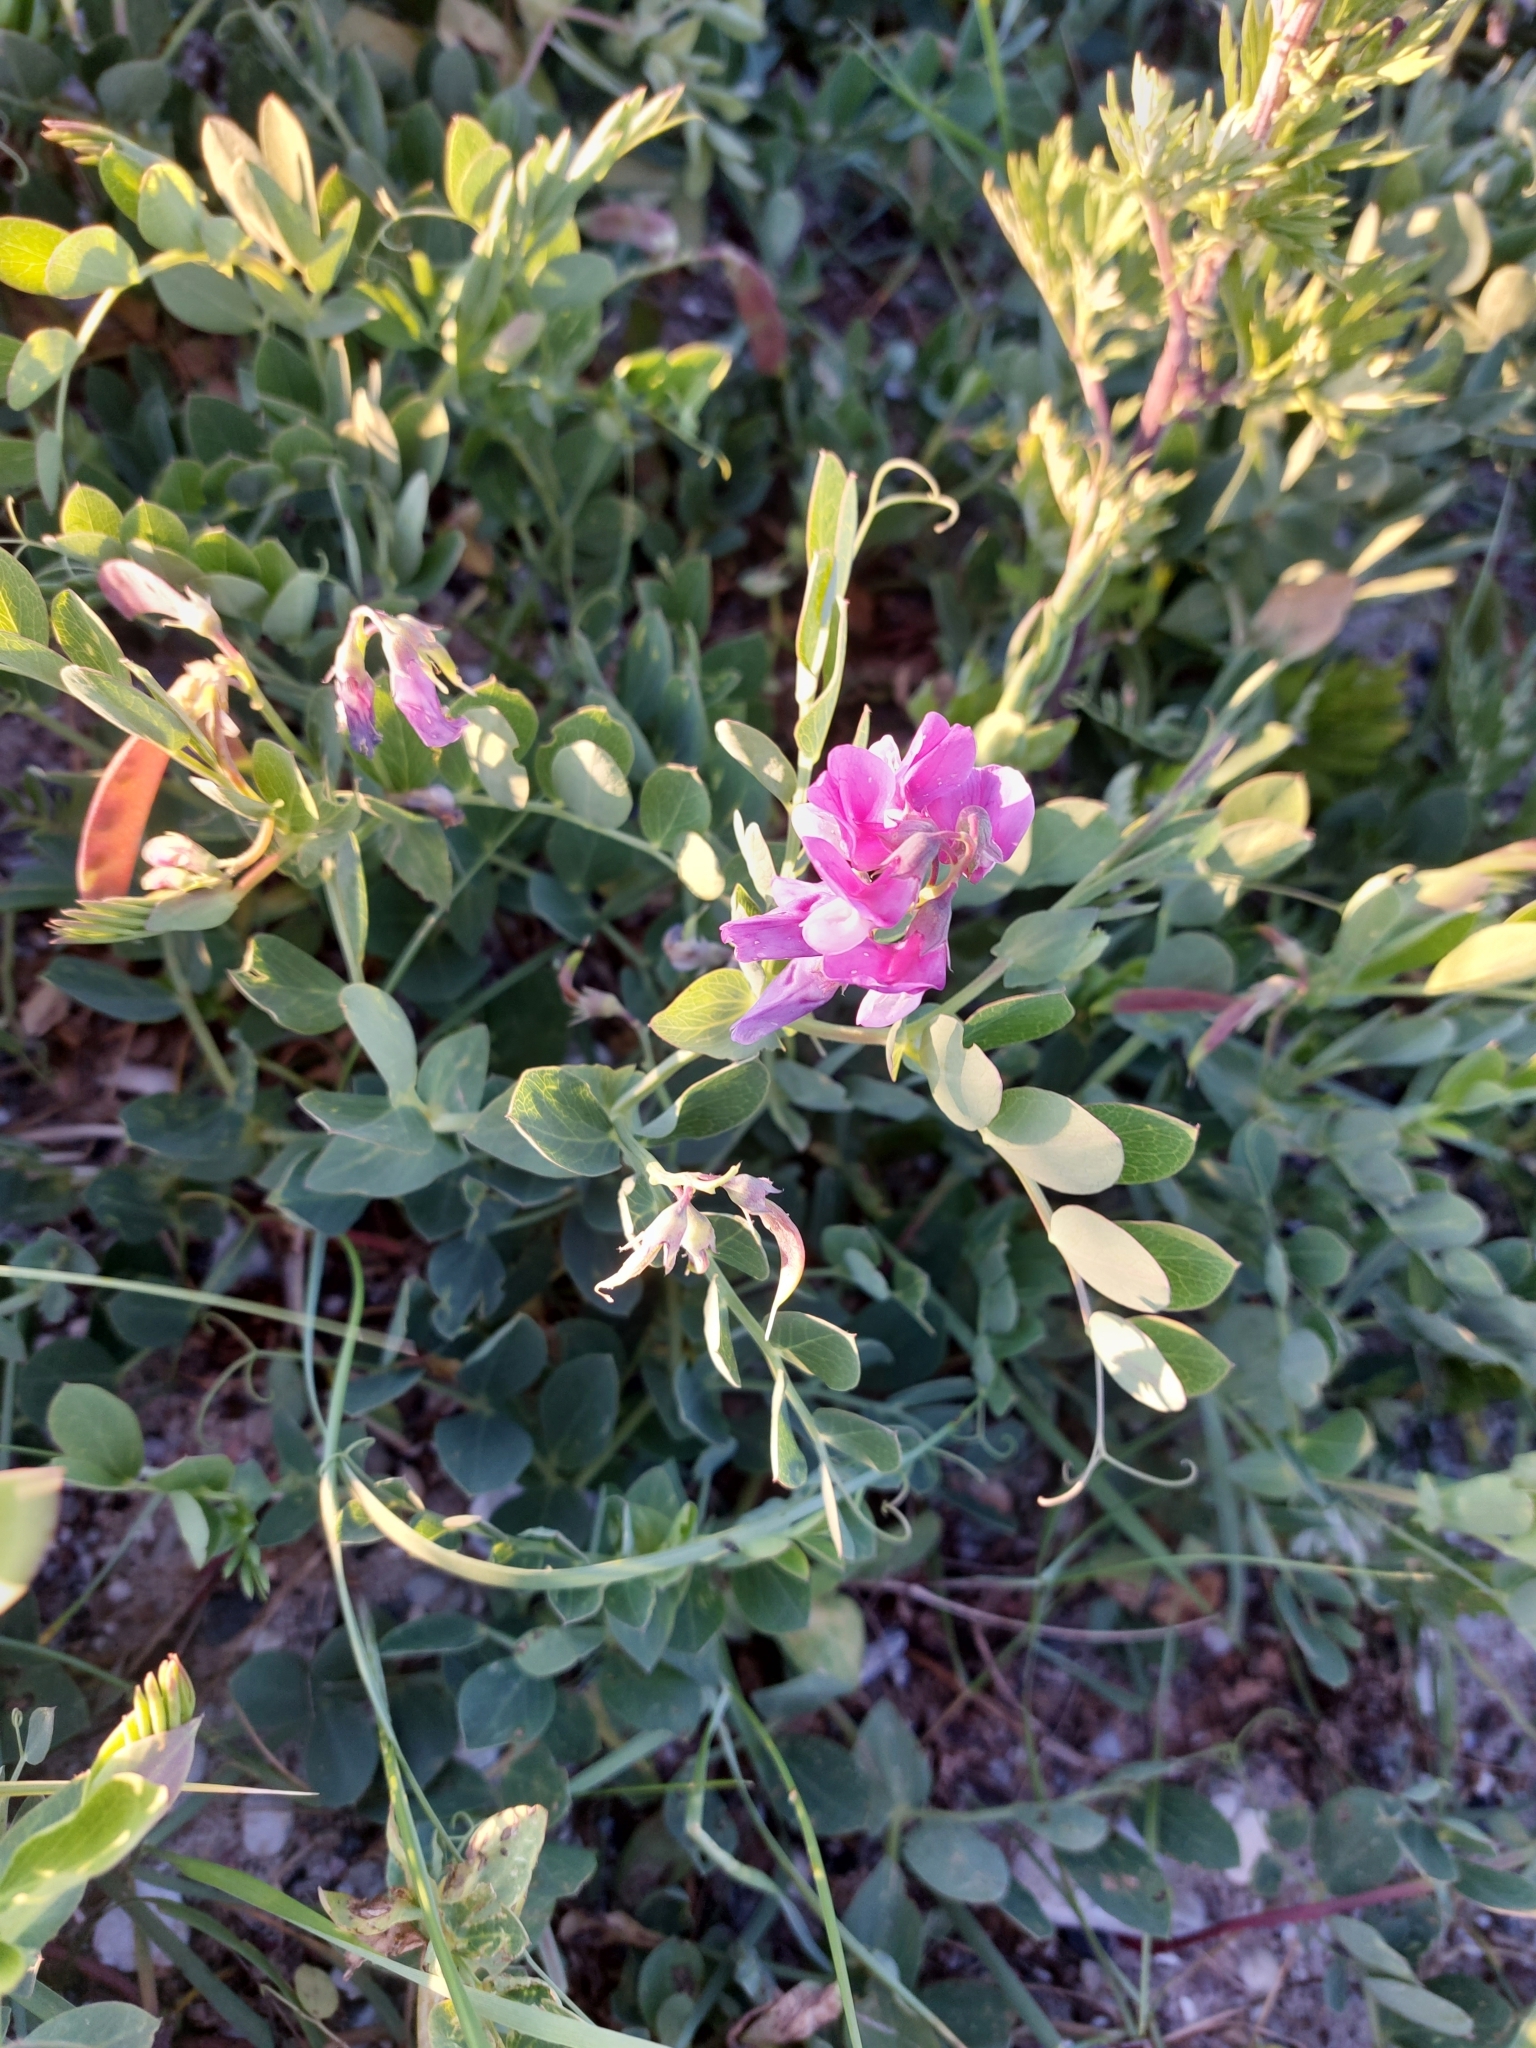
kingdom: Plantae
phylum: Tracheophyta
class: Magnoliopsida
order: Fabales
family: Fabaceae
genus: Lathyrus
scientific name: Lathyrus japonicus
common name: Sea pea
